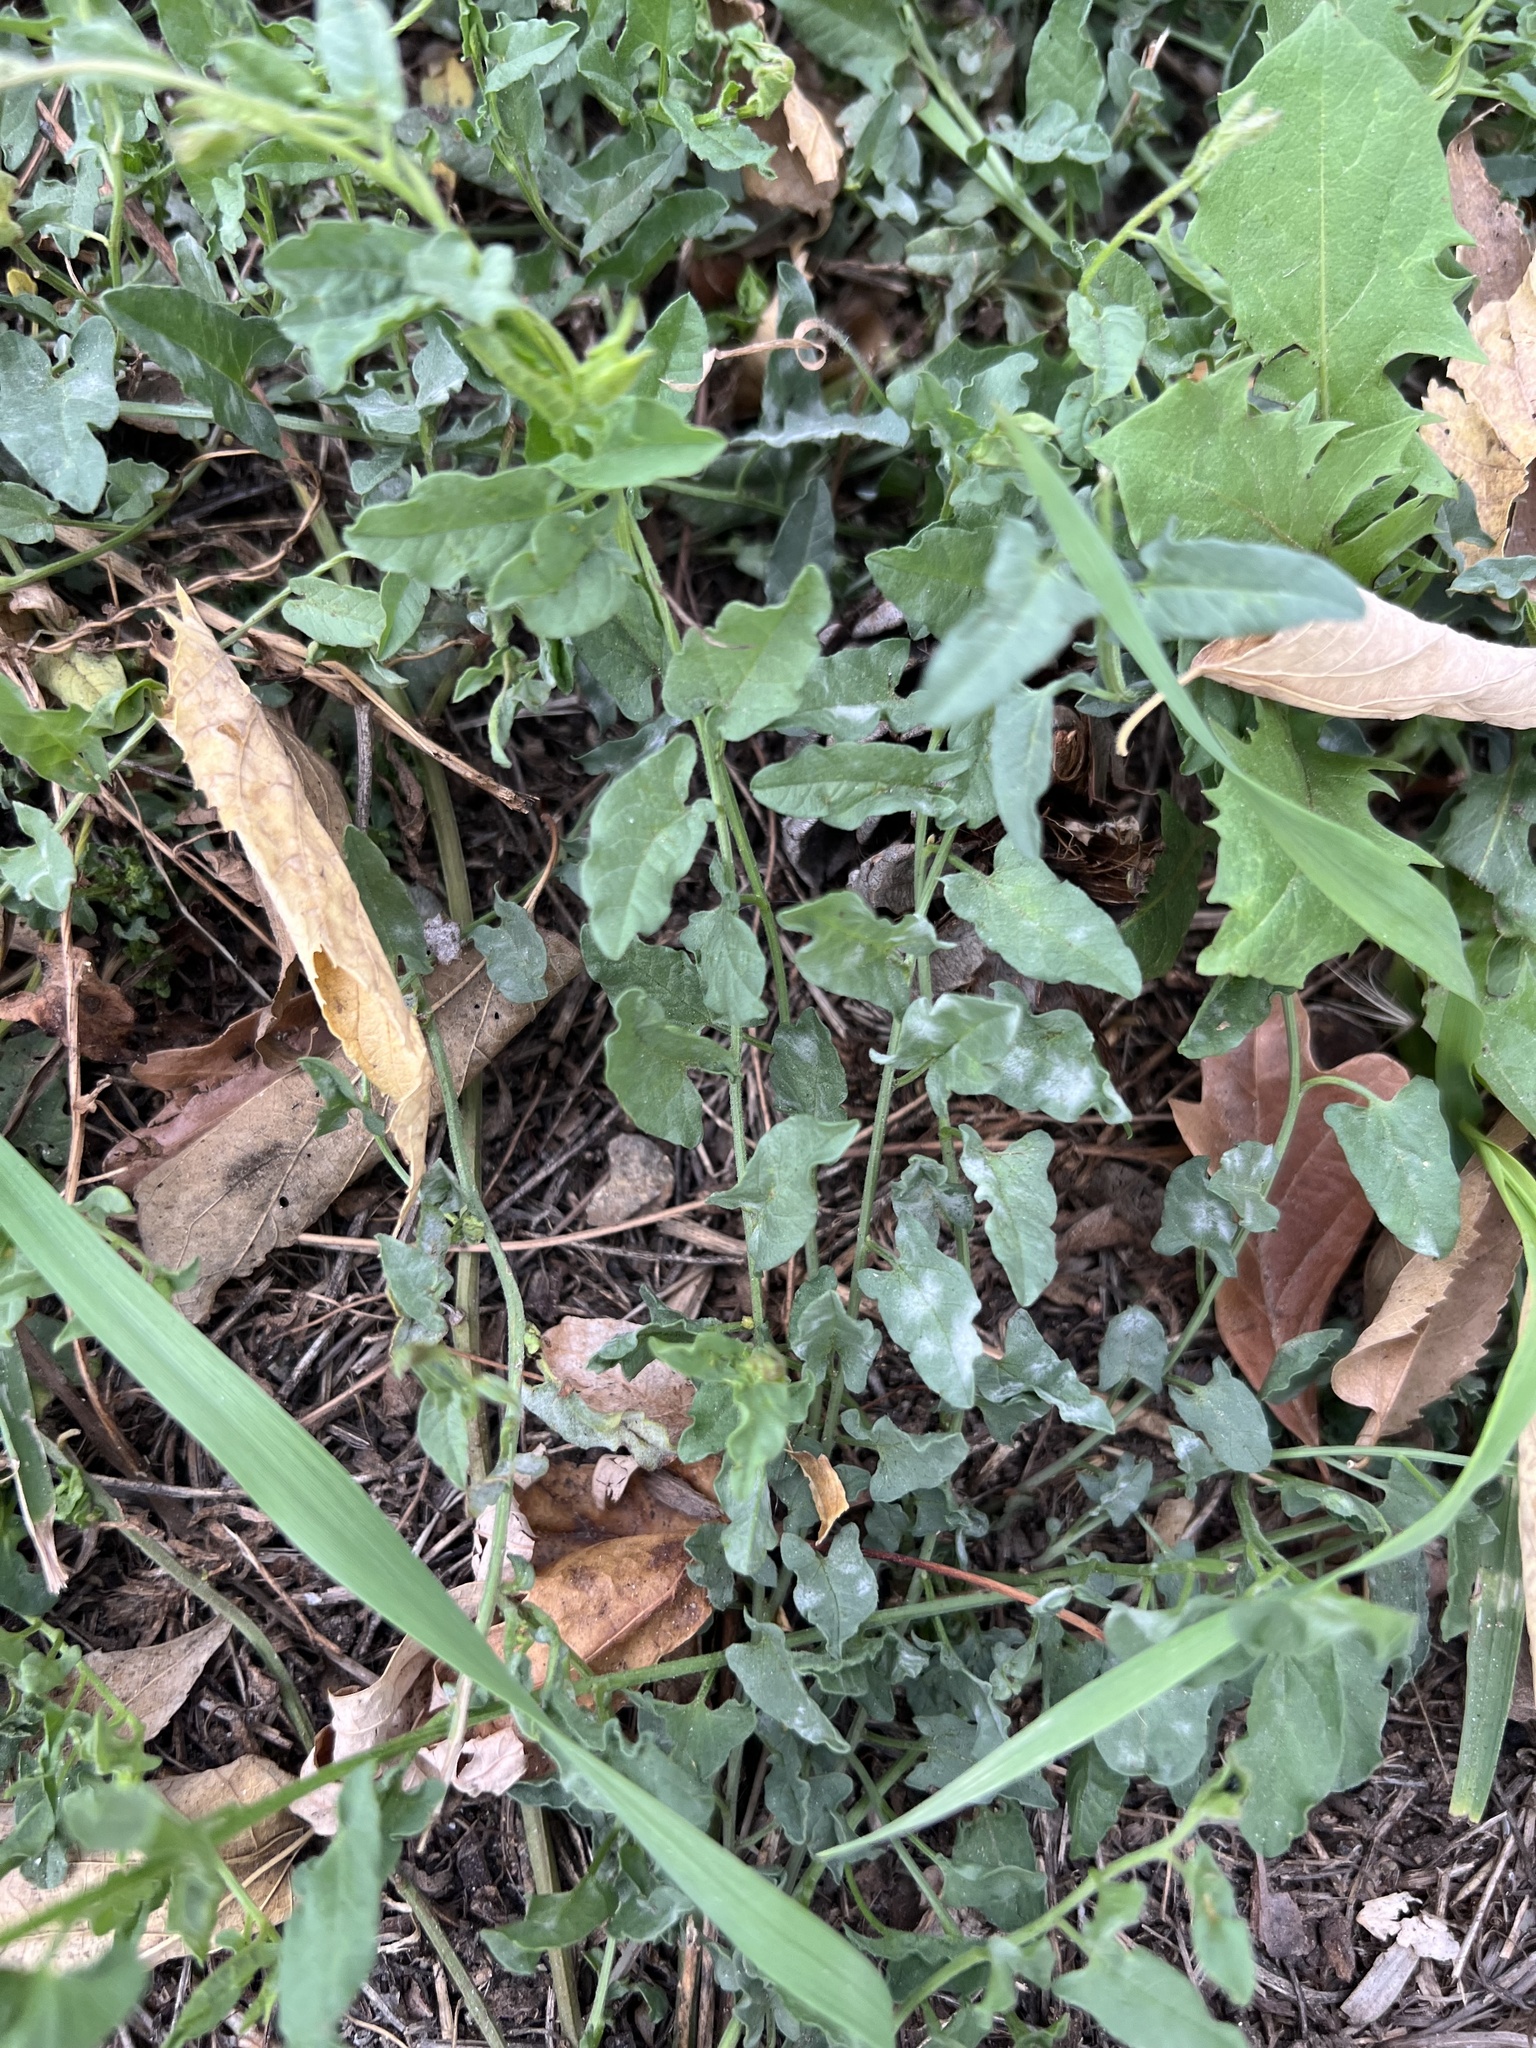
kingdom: Plantae
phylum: Tracheophyta
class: Magnoliopsida
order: Solanales
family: Convolvulaceae
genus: Convolvulus
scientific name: Convolvulus arvensis
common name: Field bindweed
